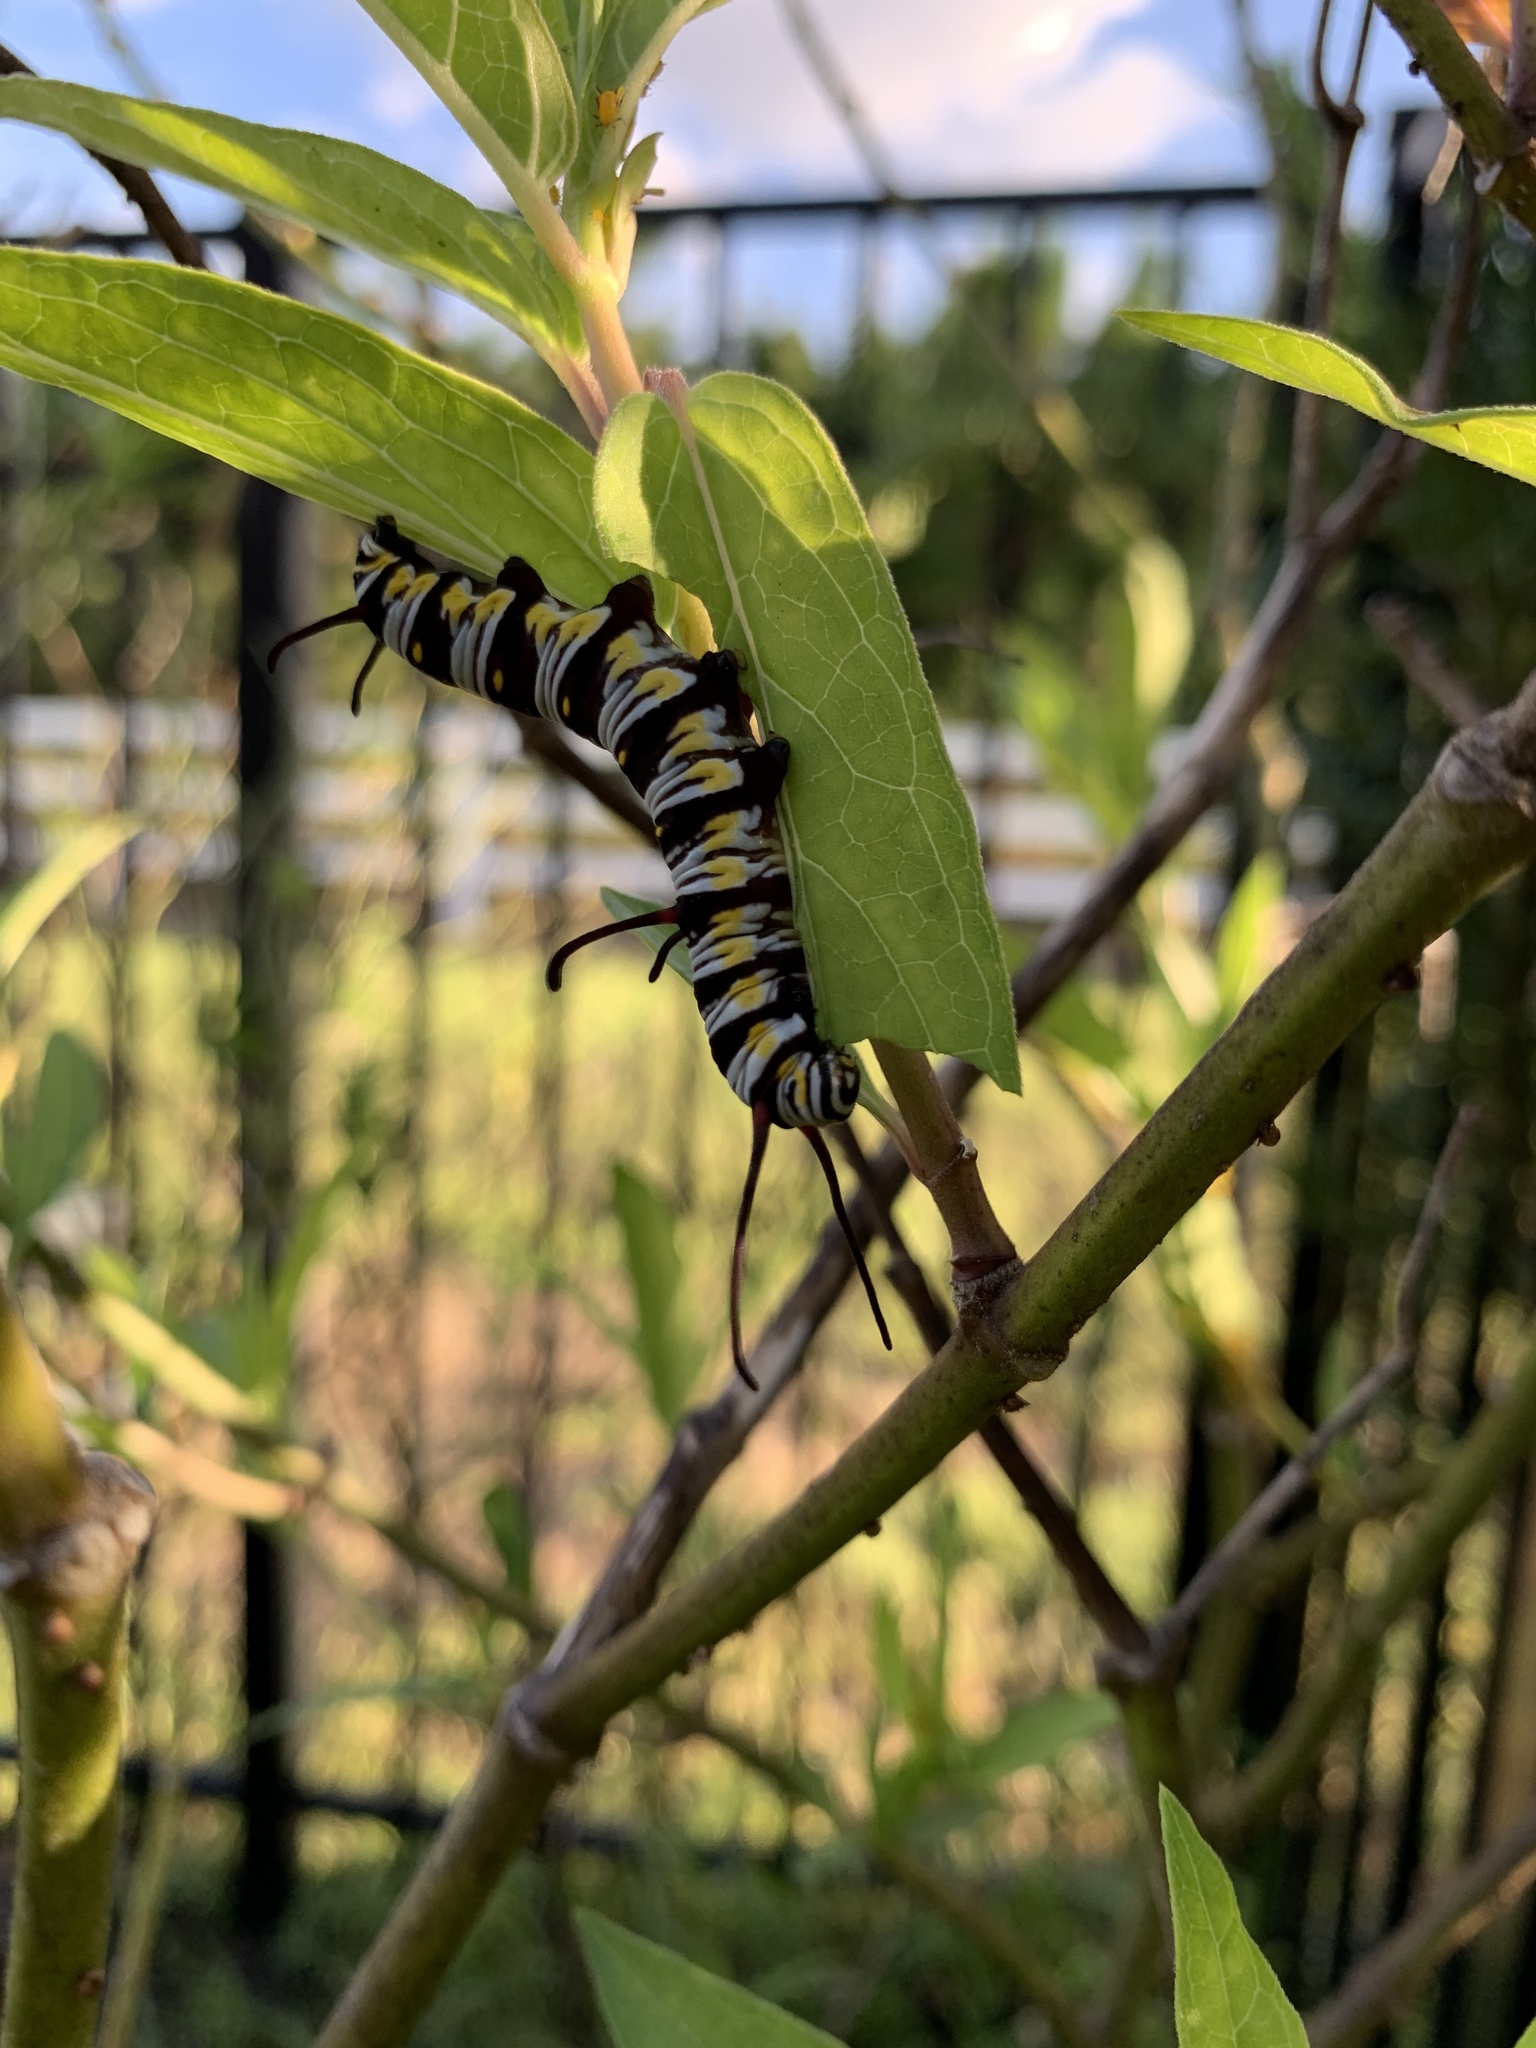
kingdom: Animalia
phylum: Arthropoda
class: Insecta
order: Lepidoptera
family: Nymphalidae
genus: Danaus
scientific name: Danaus gilippus
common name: Queen
